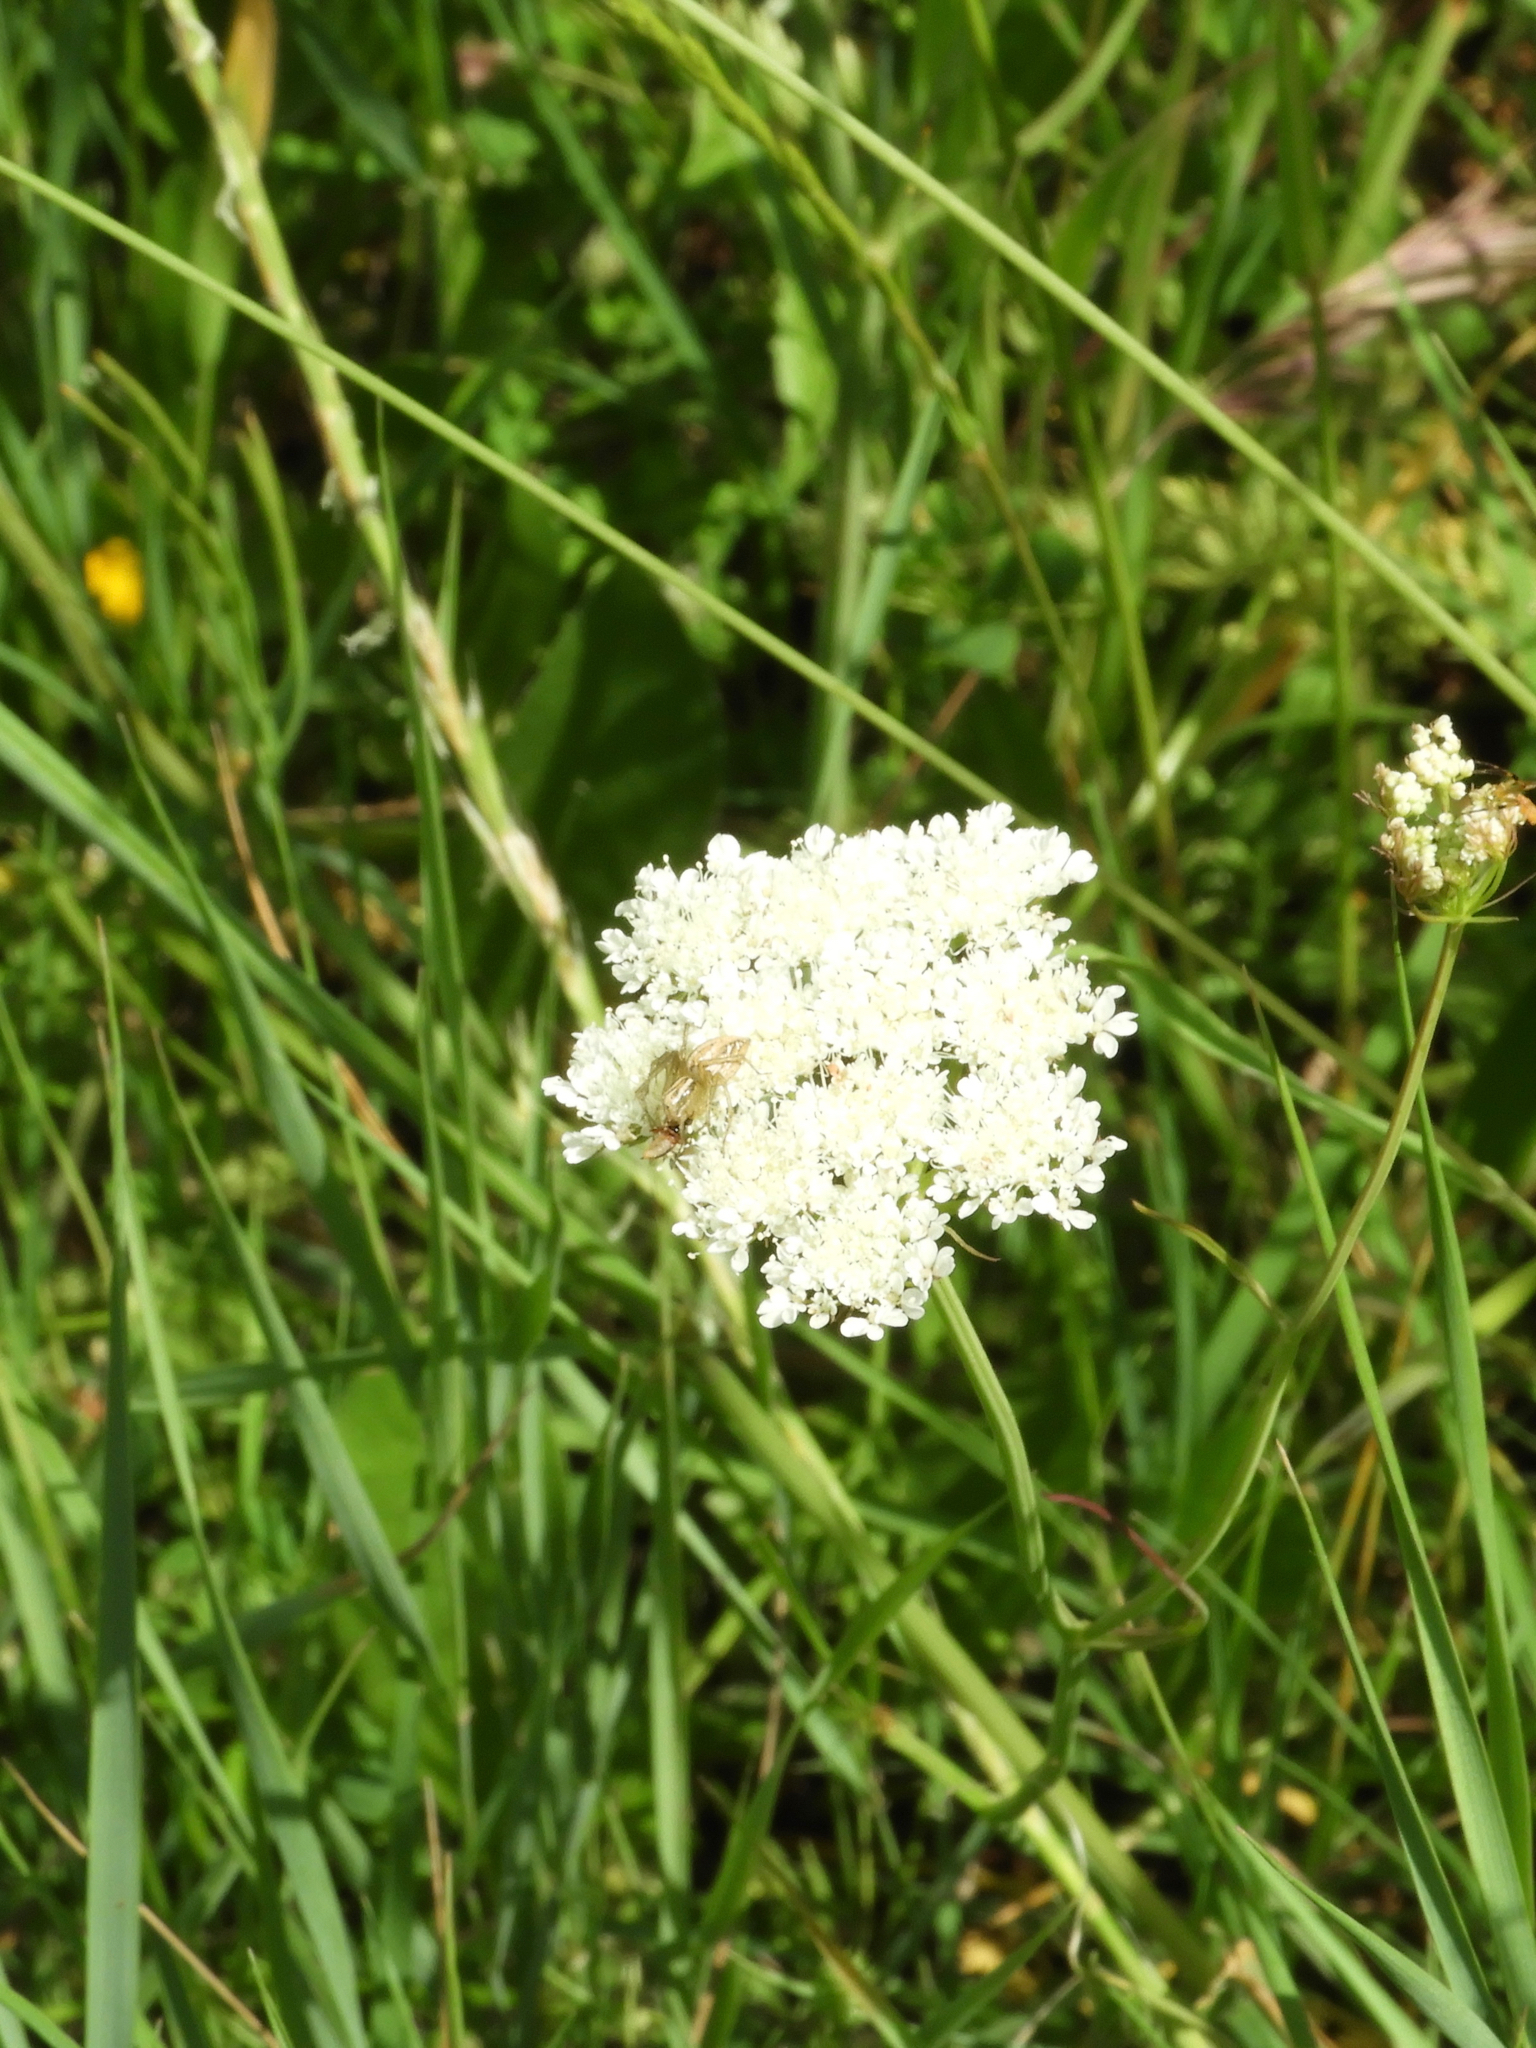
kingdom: Animalia
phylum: Arthropoda
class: Arachnida
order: Araneae
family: Oxyopidae
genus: Oxyopes
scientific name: Oxyopes
